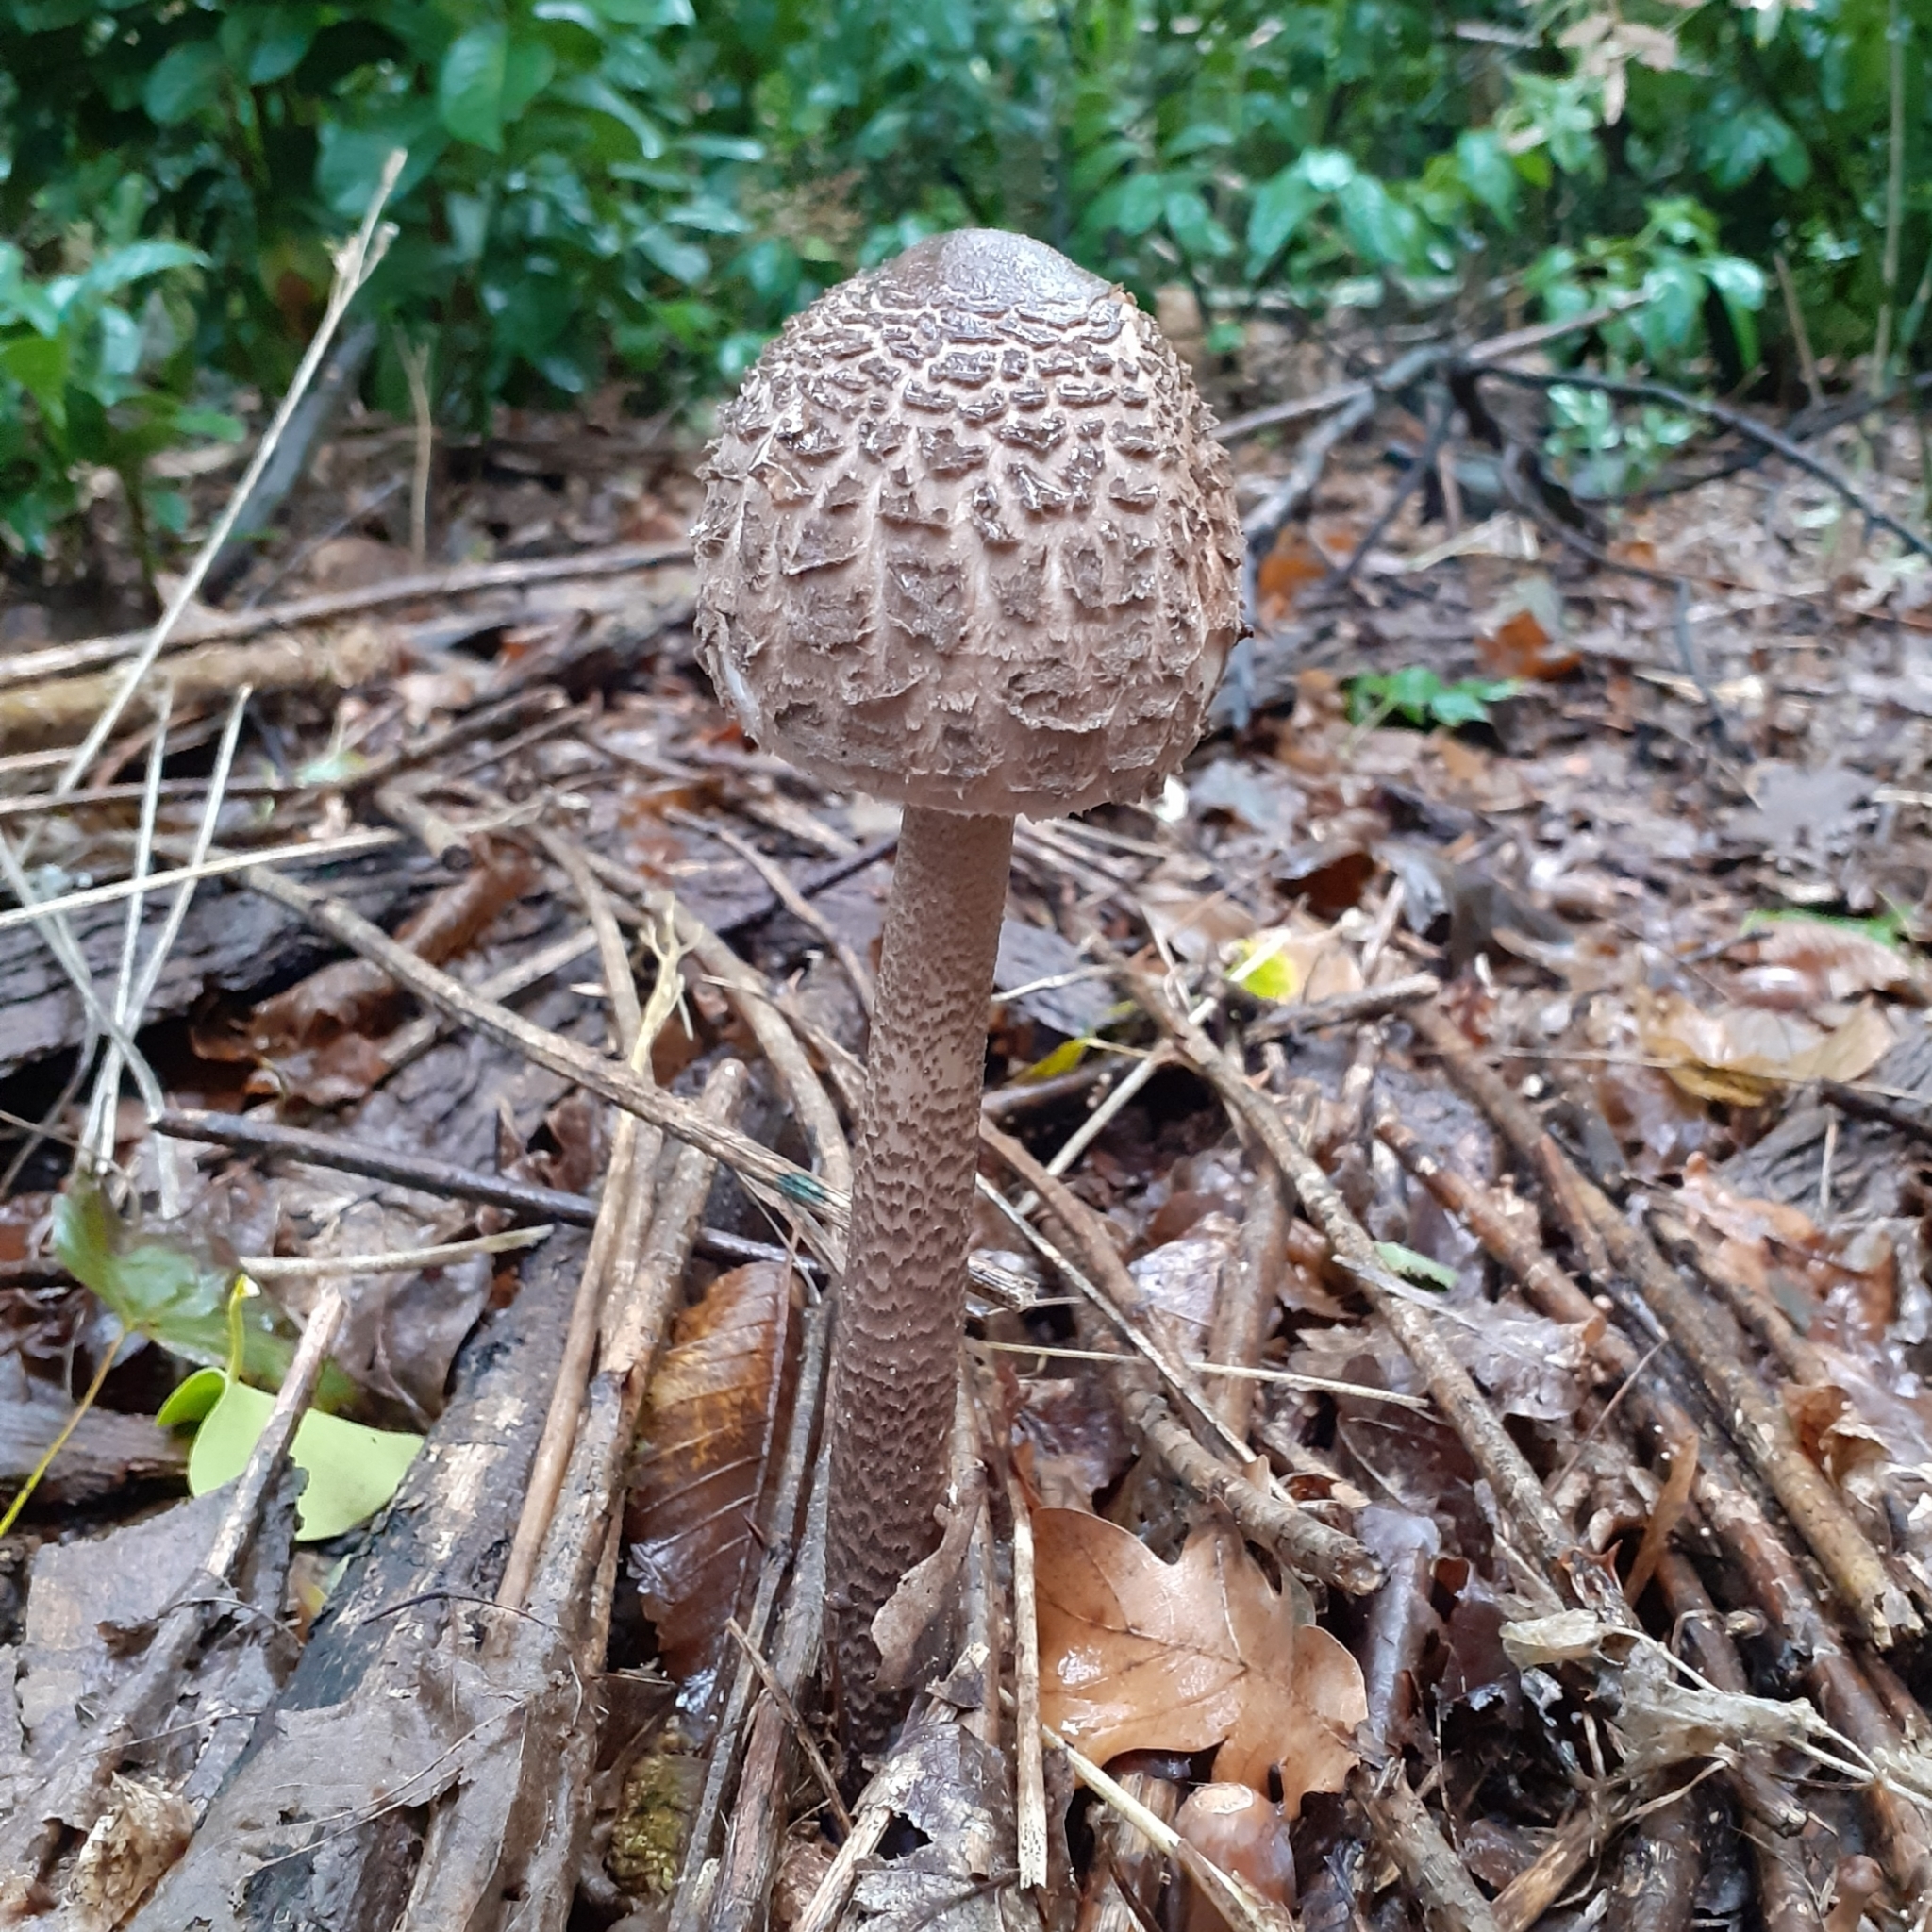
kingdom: Fungi
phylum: Basidiomycota
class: Agaricomycetes
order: Agaricales
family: Agaricaceae
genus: Macrolepiota
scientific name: Macrolepiota procera
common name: Parasol
